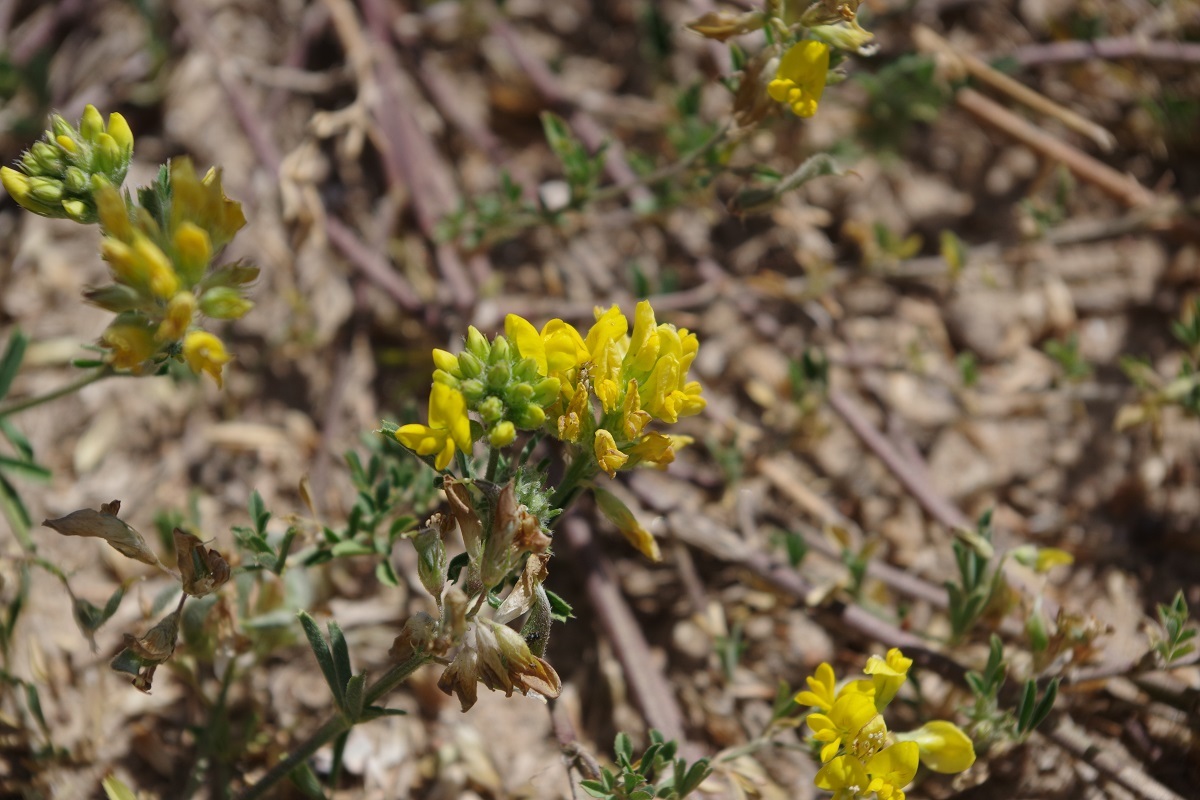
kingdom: Plantae
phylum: Tracheophyta
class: Magnoliopsida
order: Fabales
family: Fabaceae
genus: Medicago
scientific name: Medicago falcata
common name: Sickle medick
